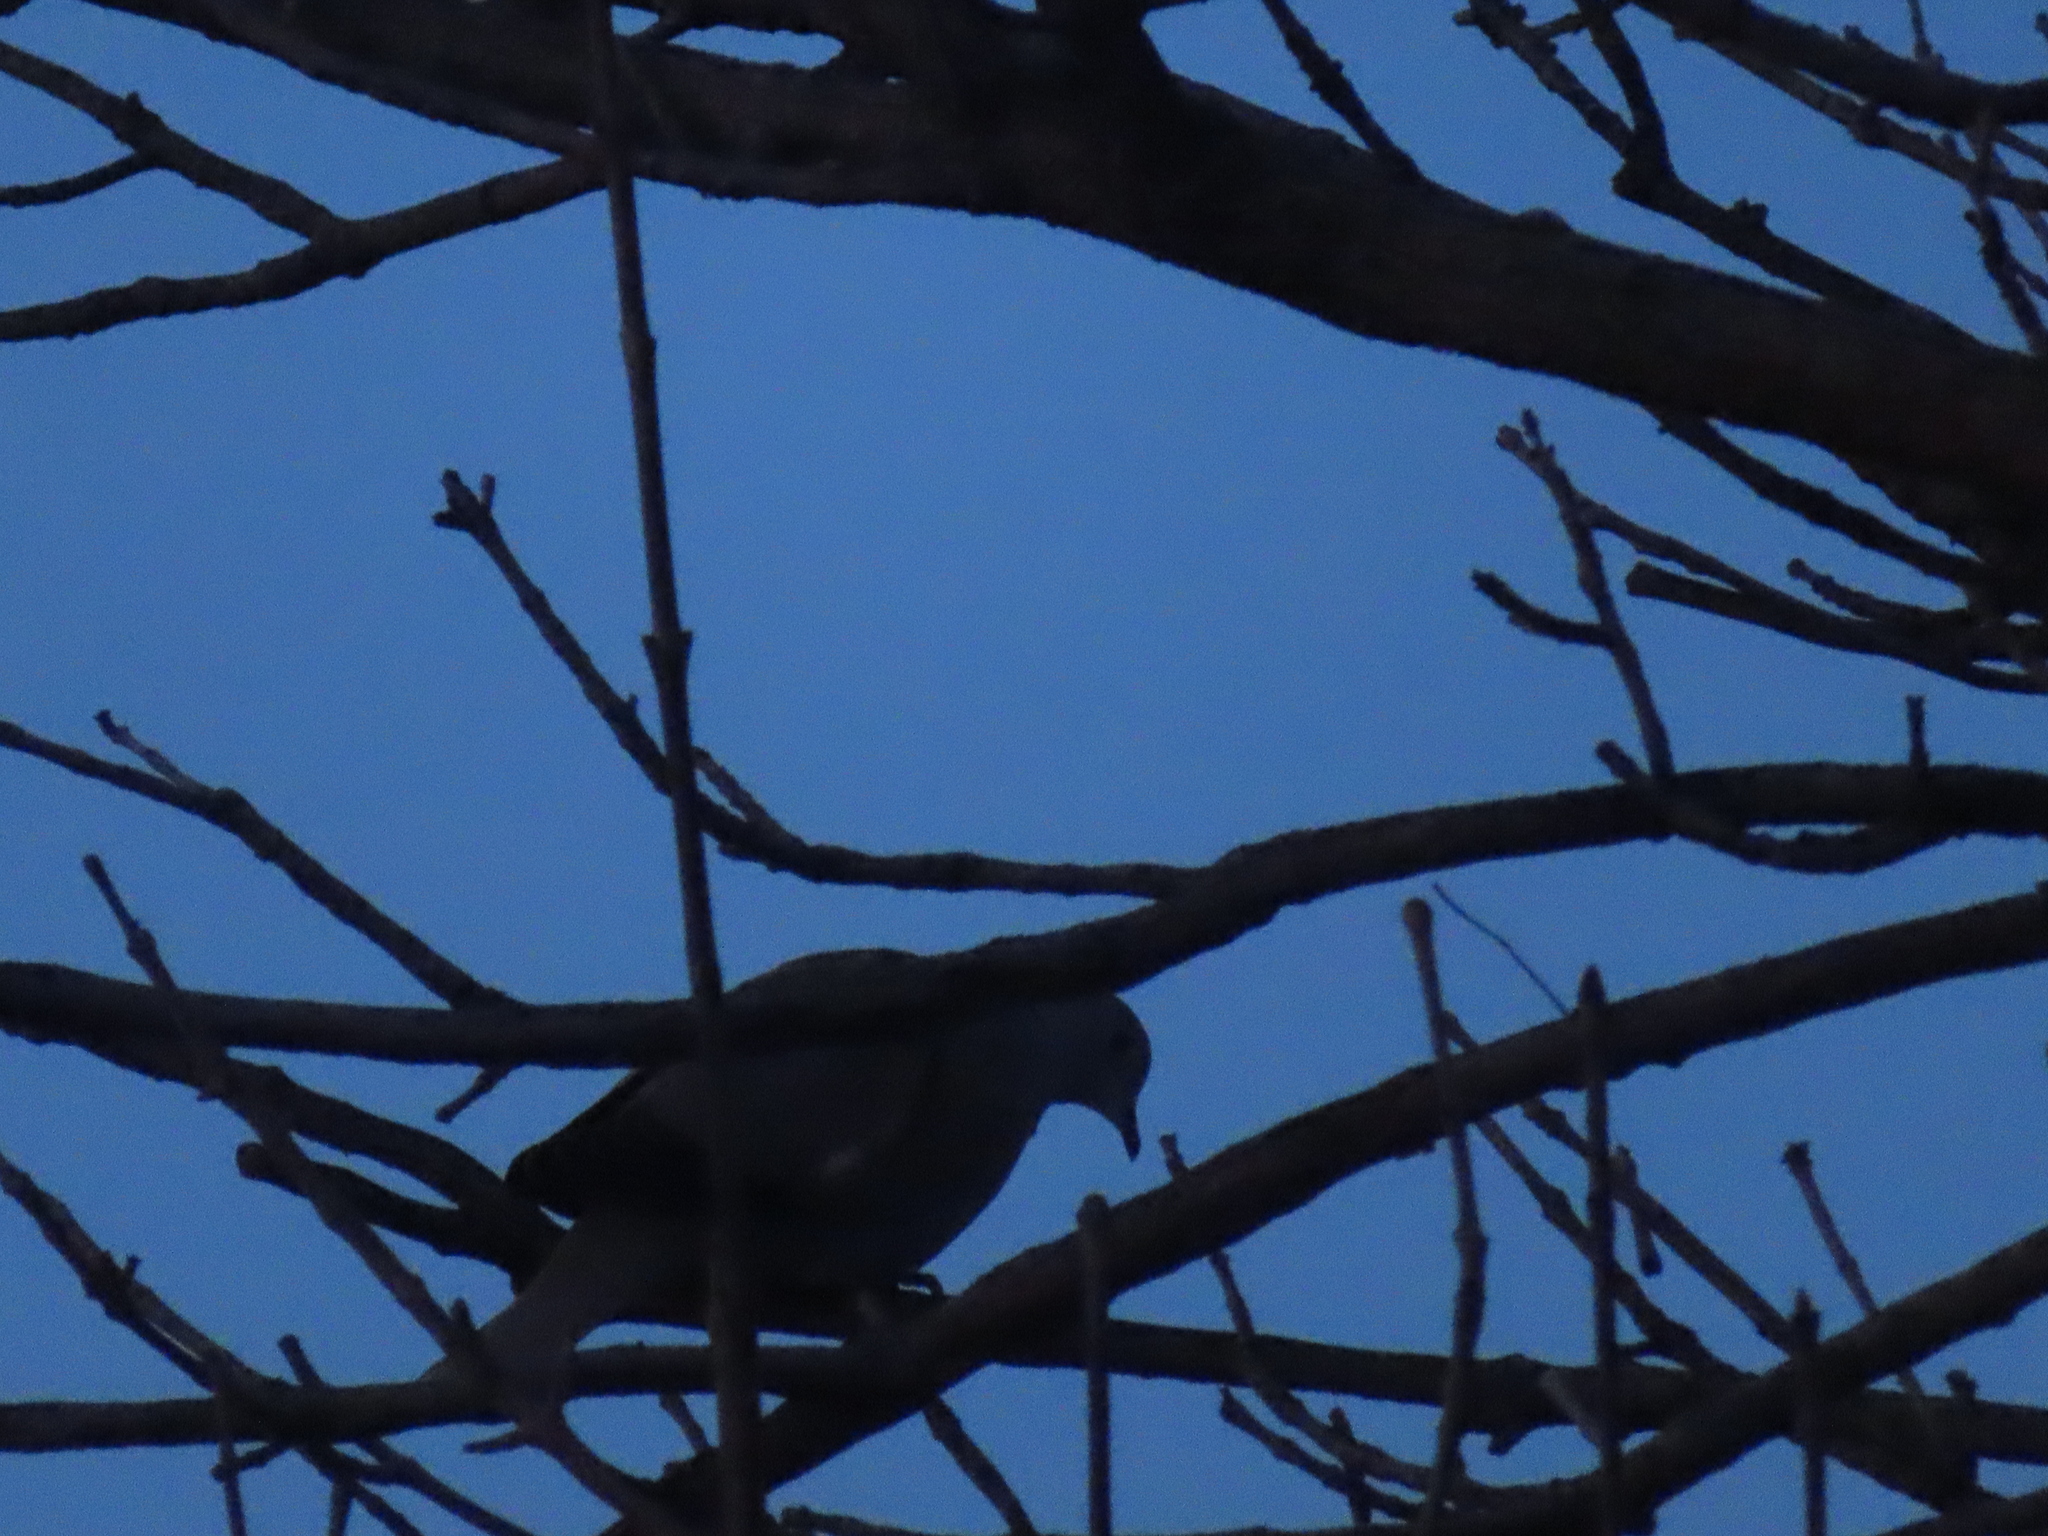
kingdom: Animalia
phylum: Chordata
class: Aves
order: Columbiformes
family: Columbidae
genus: Streptopelia
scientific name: Streptopelia decaocto
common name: Eurasian collared dove
